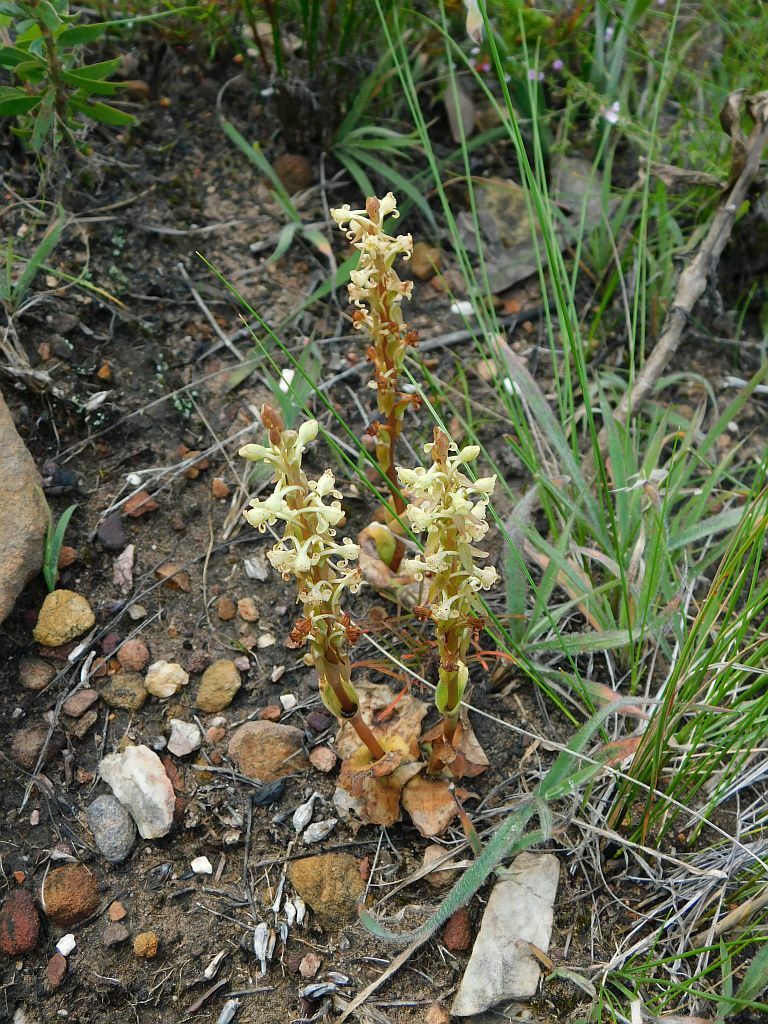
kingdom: Plantae
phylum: Tracheophyta
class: Liliopsida
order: Asparagales
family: Orchidaceae
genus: Satyrium
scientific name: Satyrium humile
